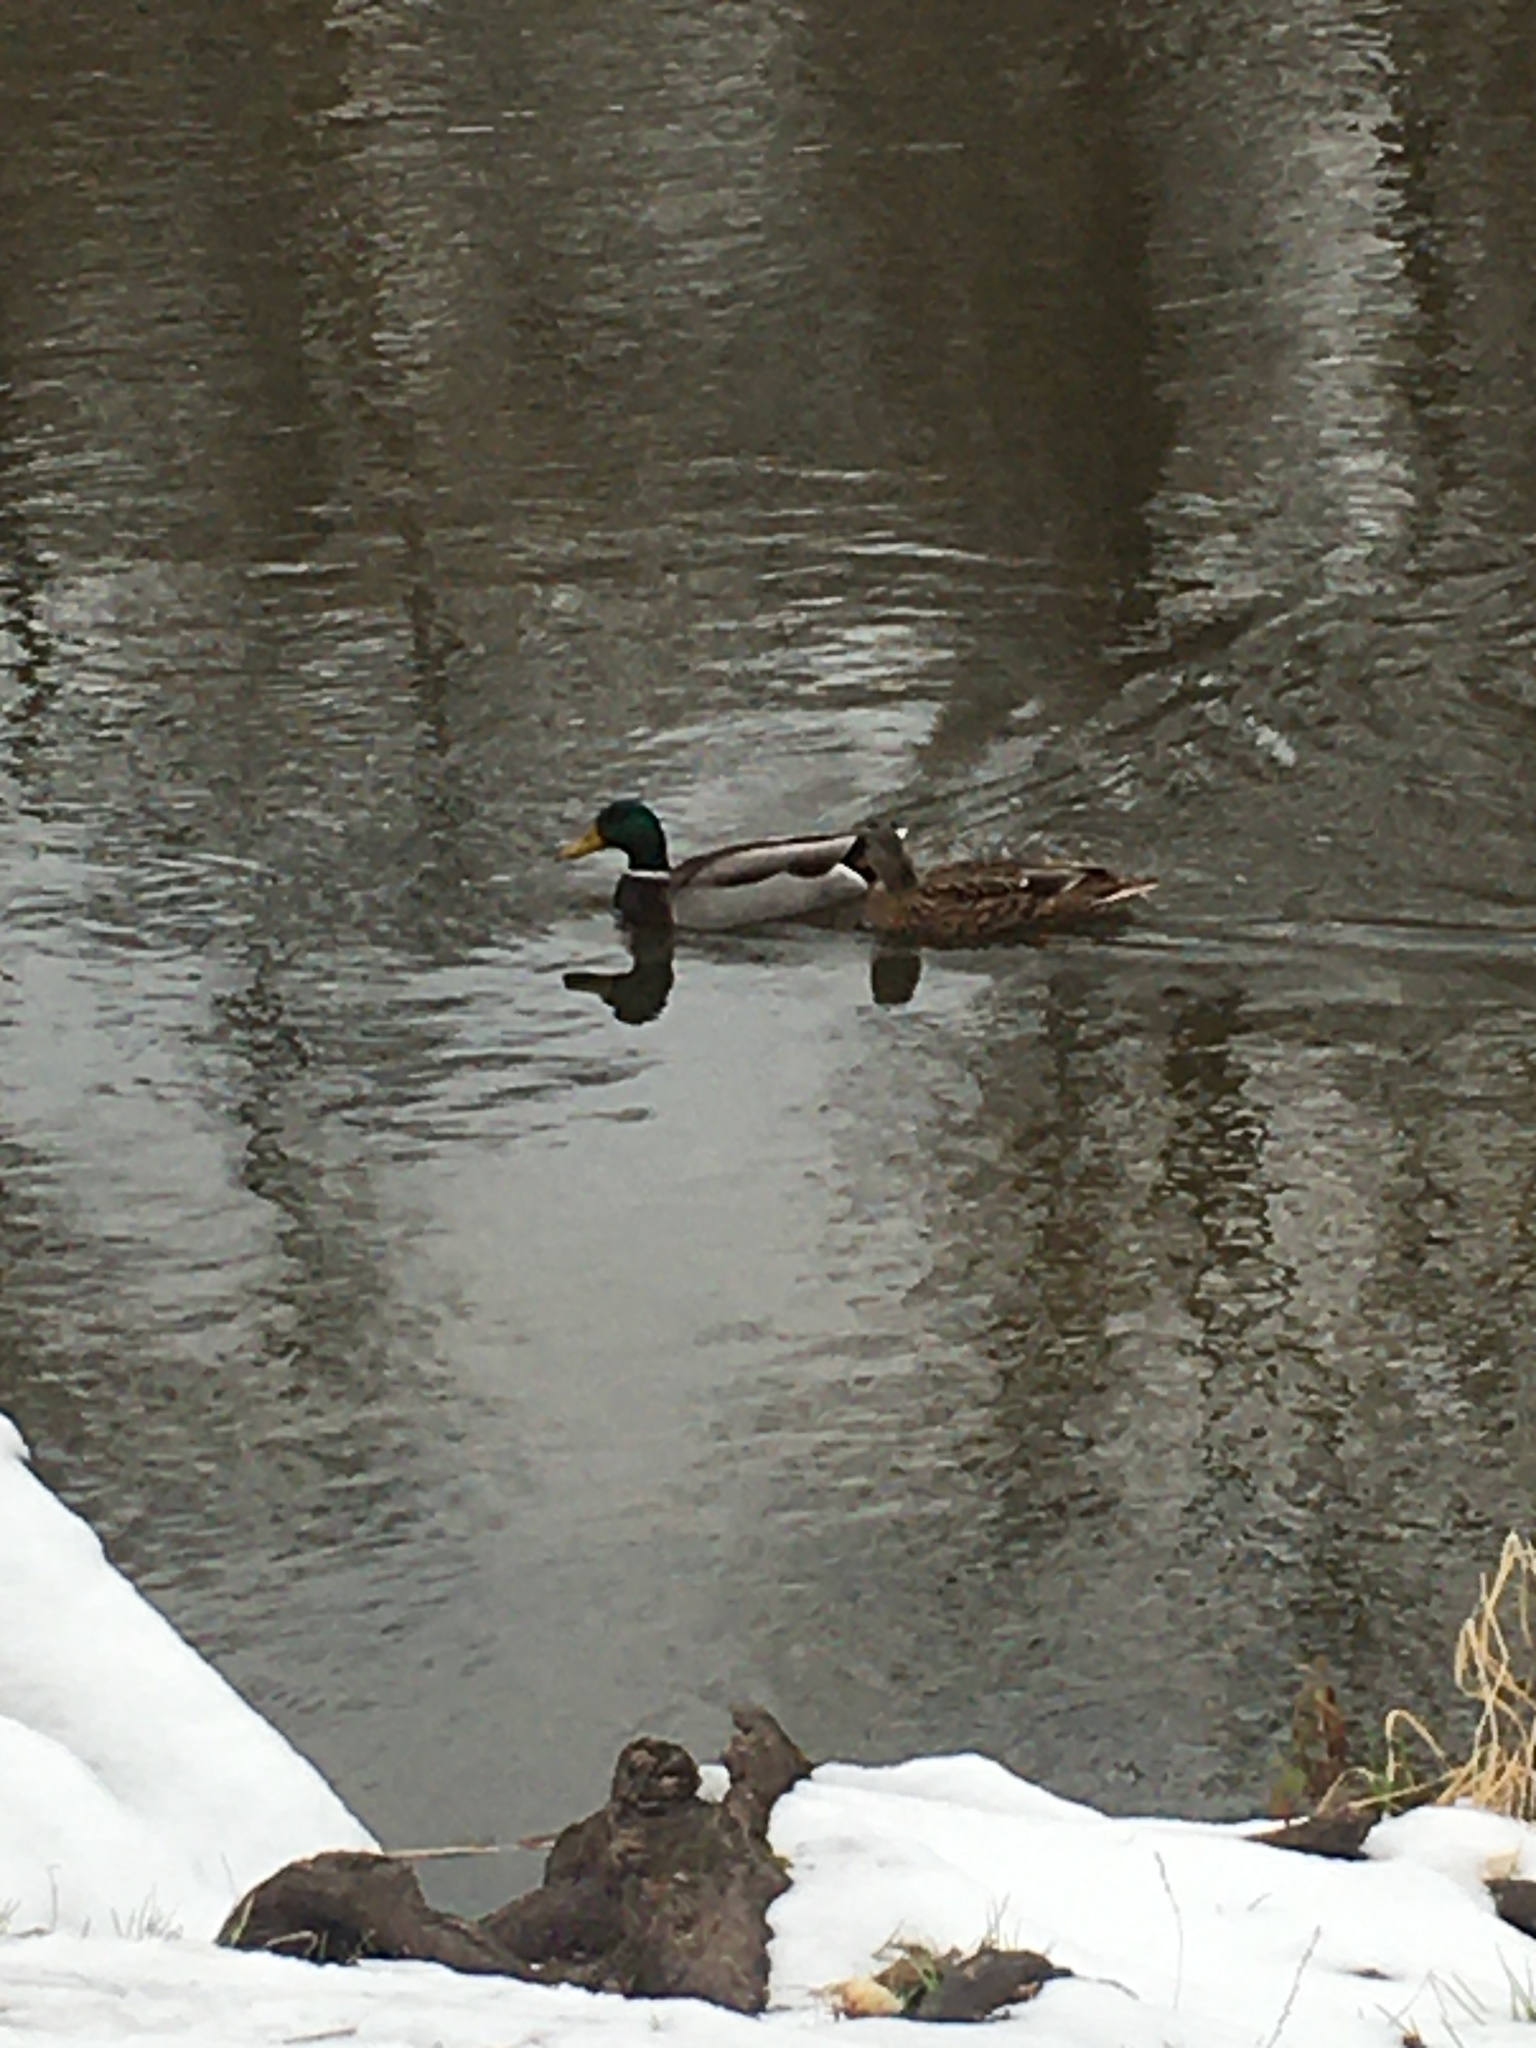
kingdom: Animalia
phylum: Chordata
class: Aves
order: Anseriformes
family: Anatidae
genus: Anas
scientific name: Anas platyrhynchos
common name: Mallard
